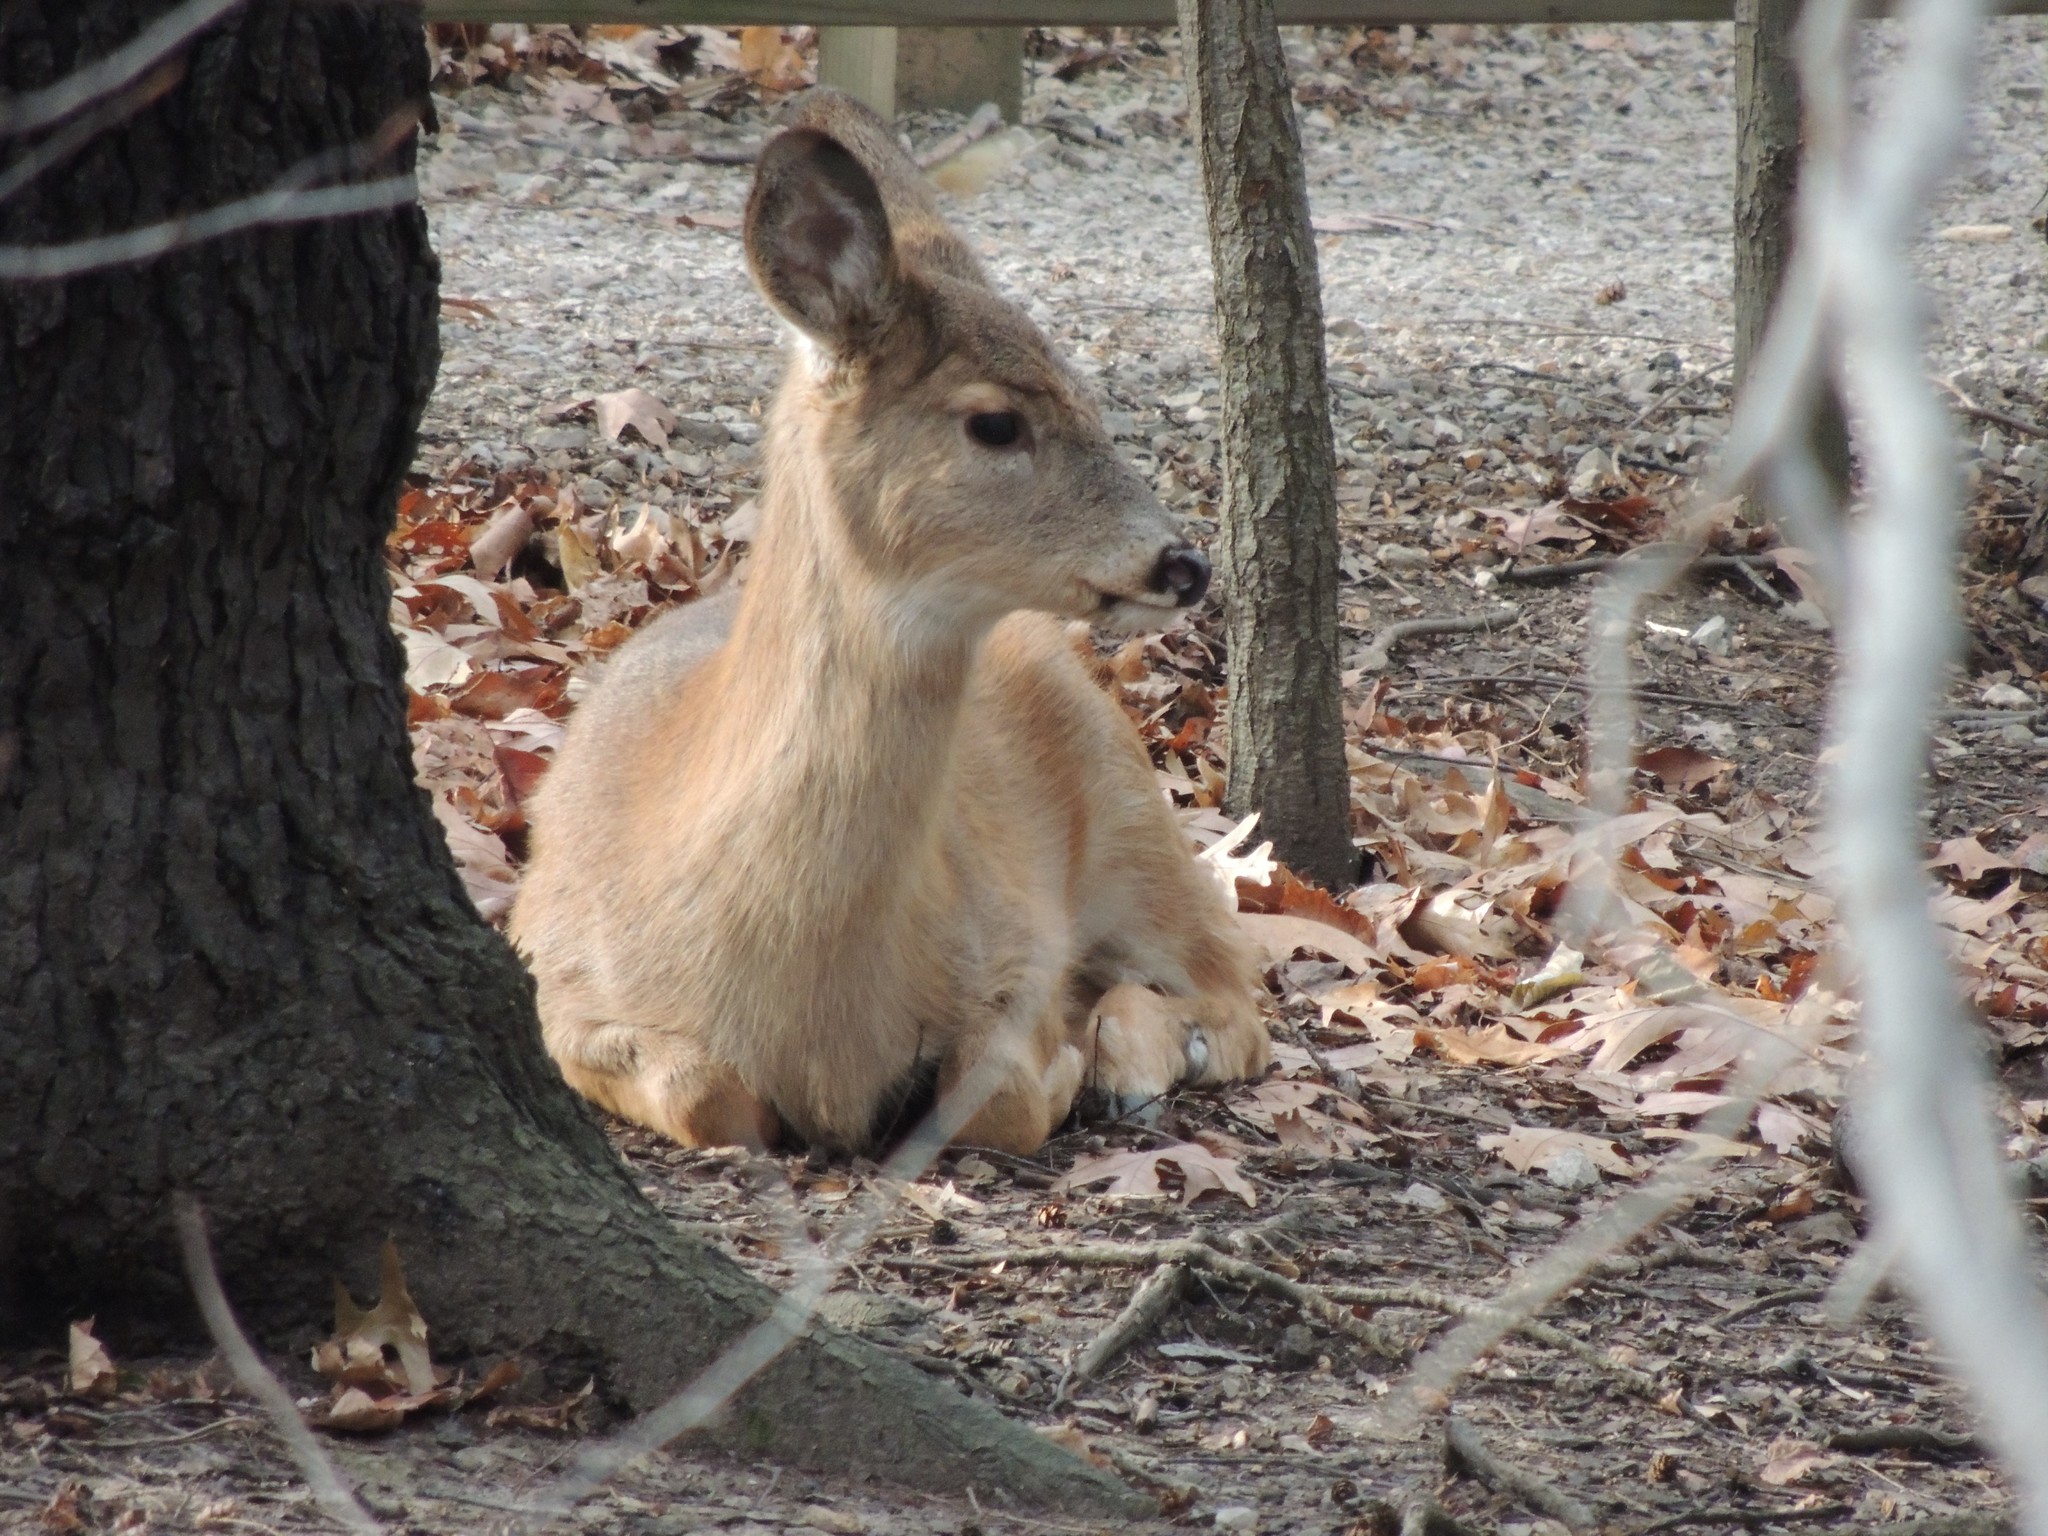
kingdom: Animalia
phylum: Chordata
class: Mammalia
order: Artiodactyla
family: Cervidae
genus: Odocoileus
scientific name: Odocoileus virginianus
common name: White-tailed deer
